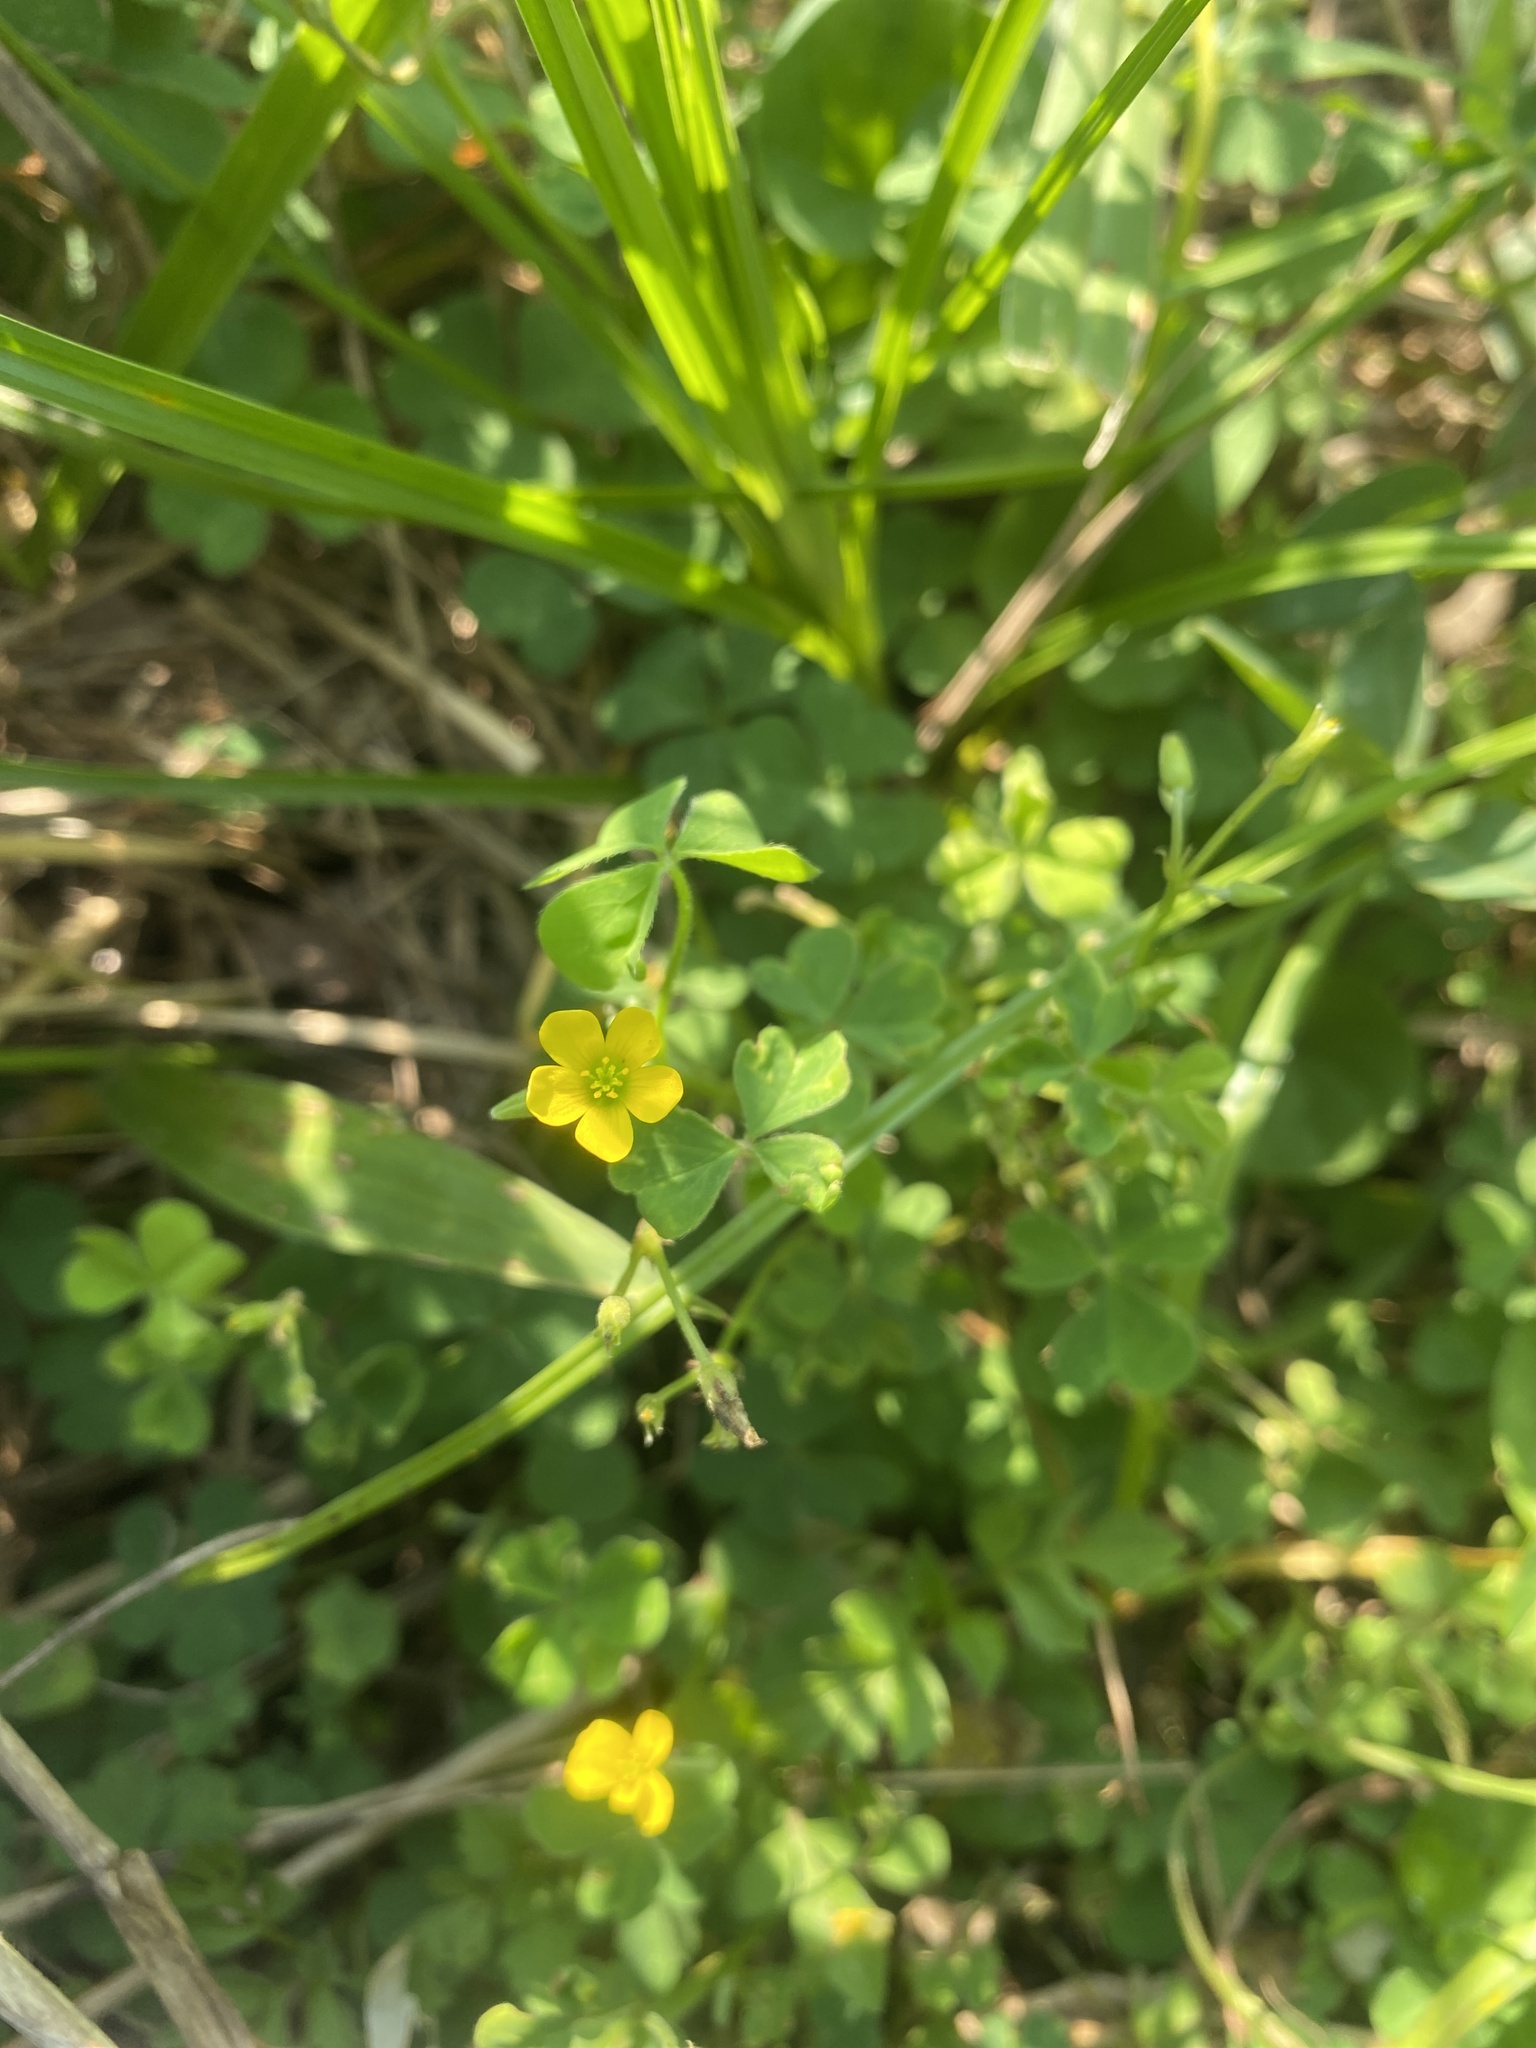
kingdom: Plantae
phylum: Tracheophyta
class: Magnoliopsida
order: Oxalidales
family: Oxalidaceae
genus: Oxalis
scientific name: Oxalis corniculata
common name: Procumbent yellow-sorrel
